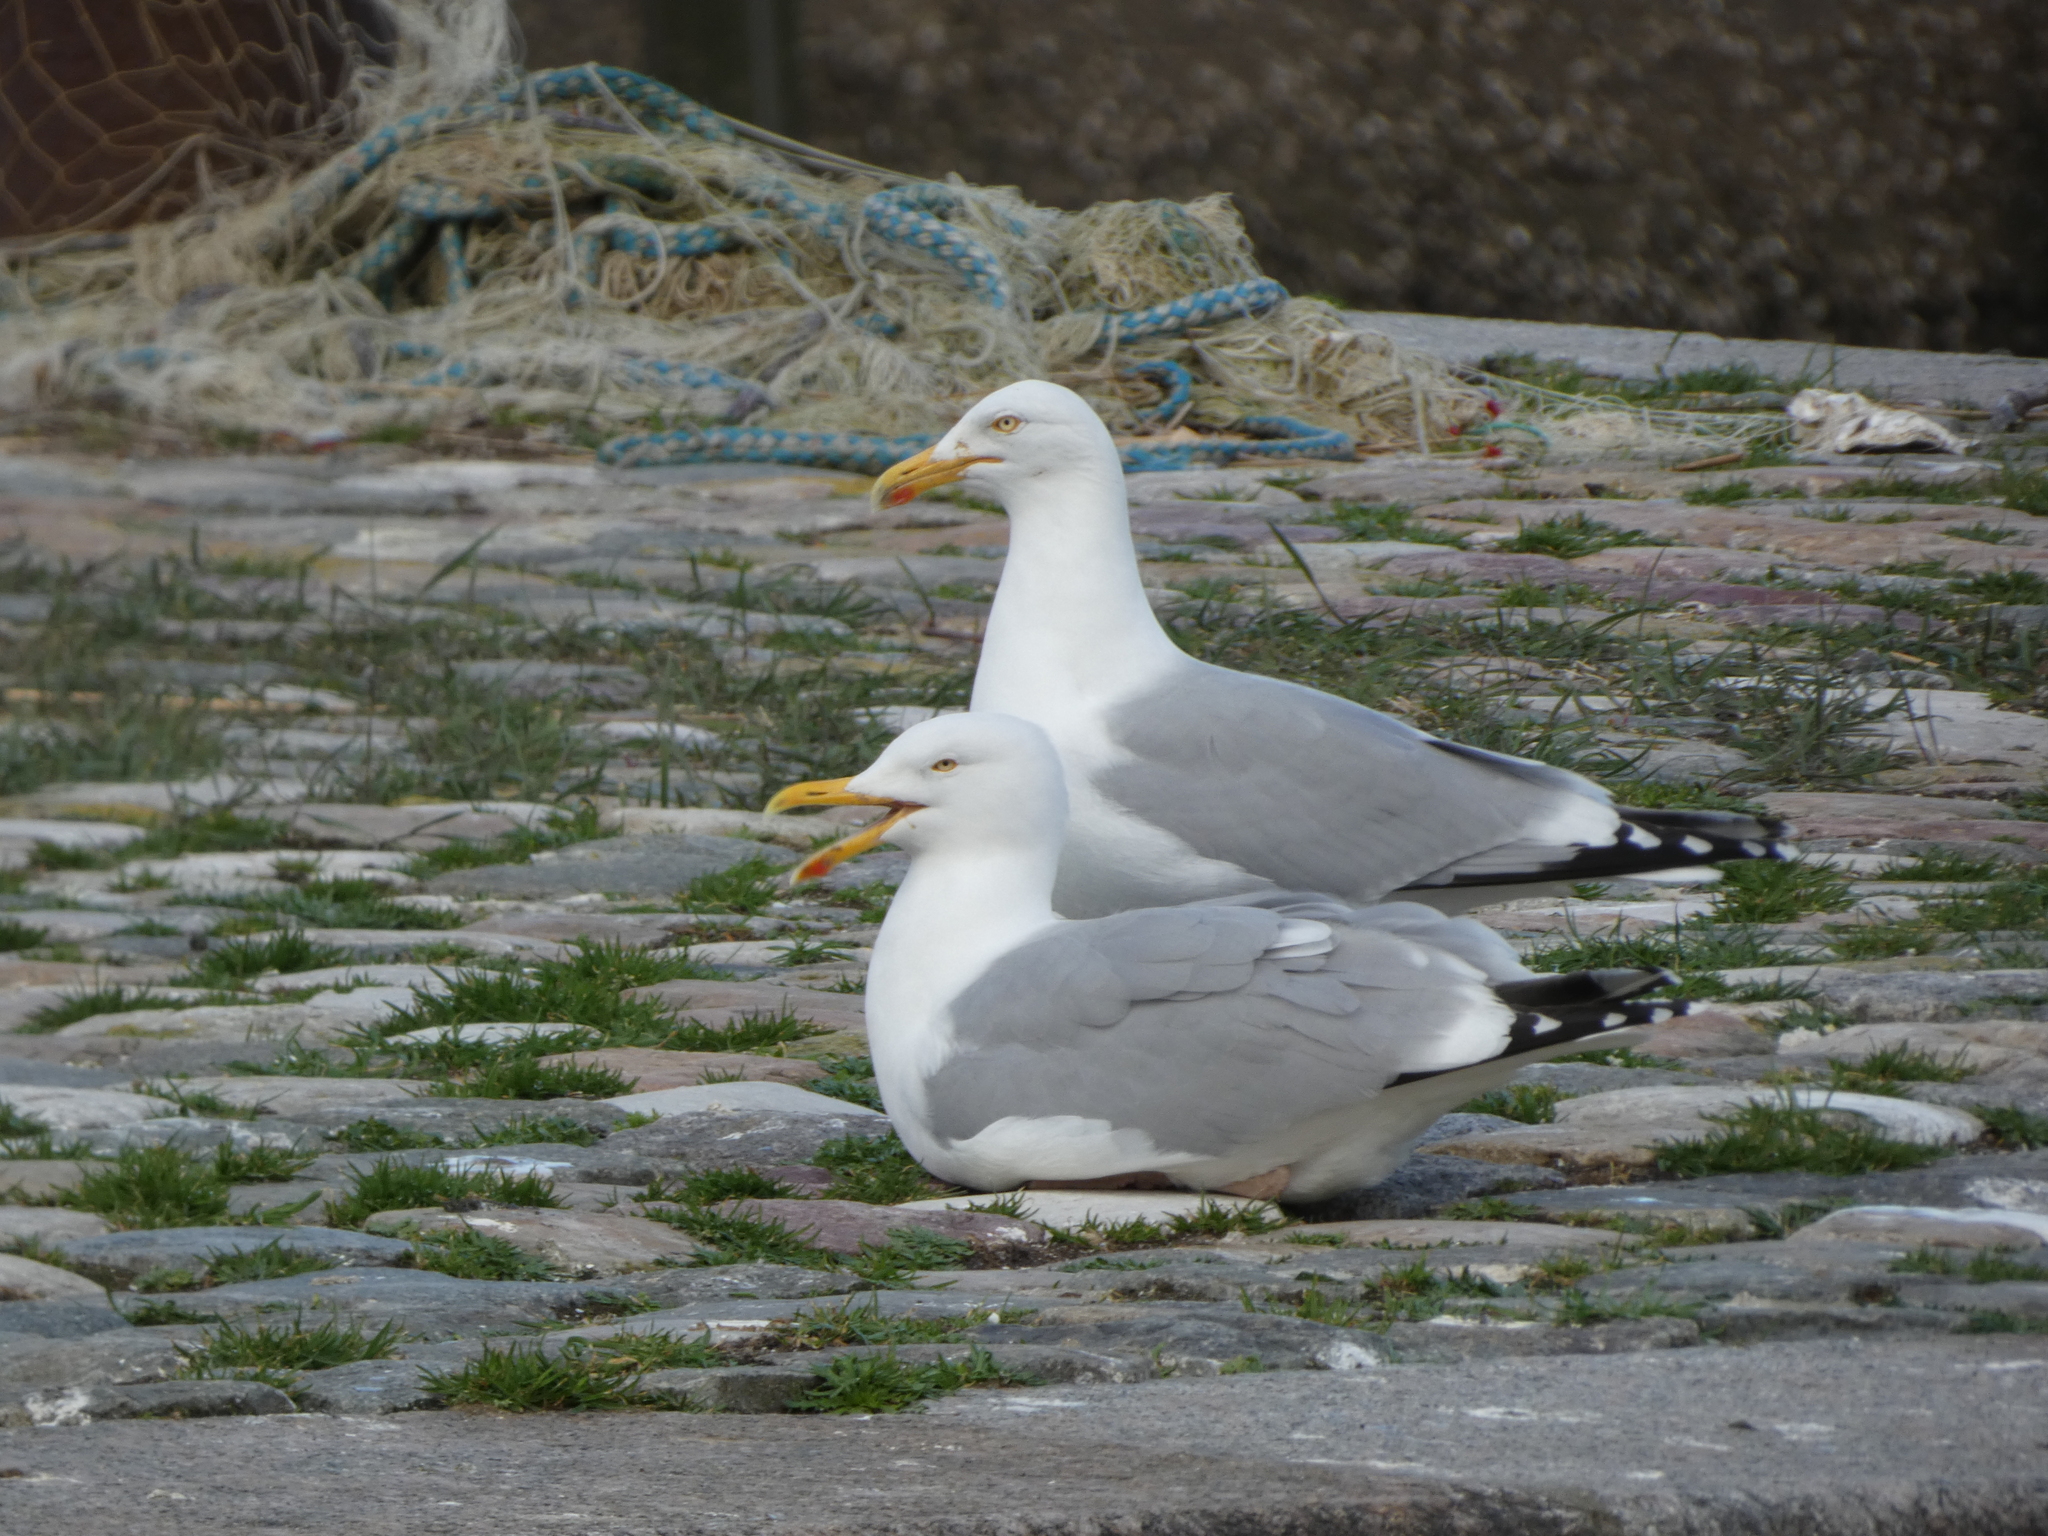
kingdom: Animalia
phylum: Chordata
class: Aves
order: Charadriiformes
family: Laridae
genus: Larus
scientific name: Larus argentatus
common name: Herring gull
